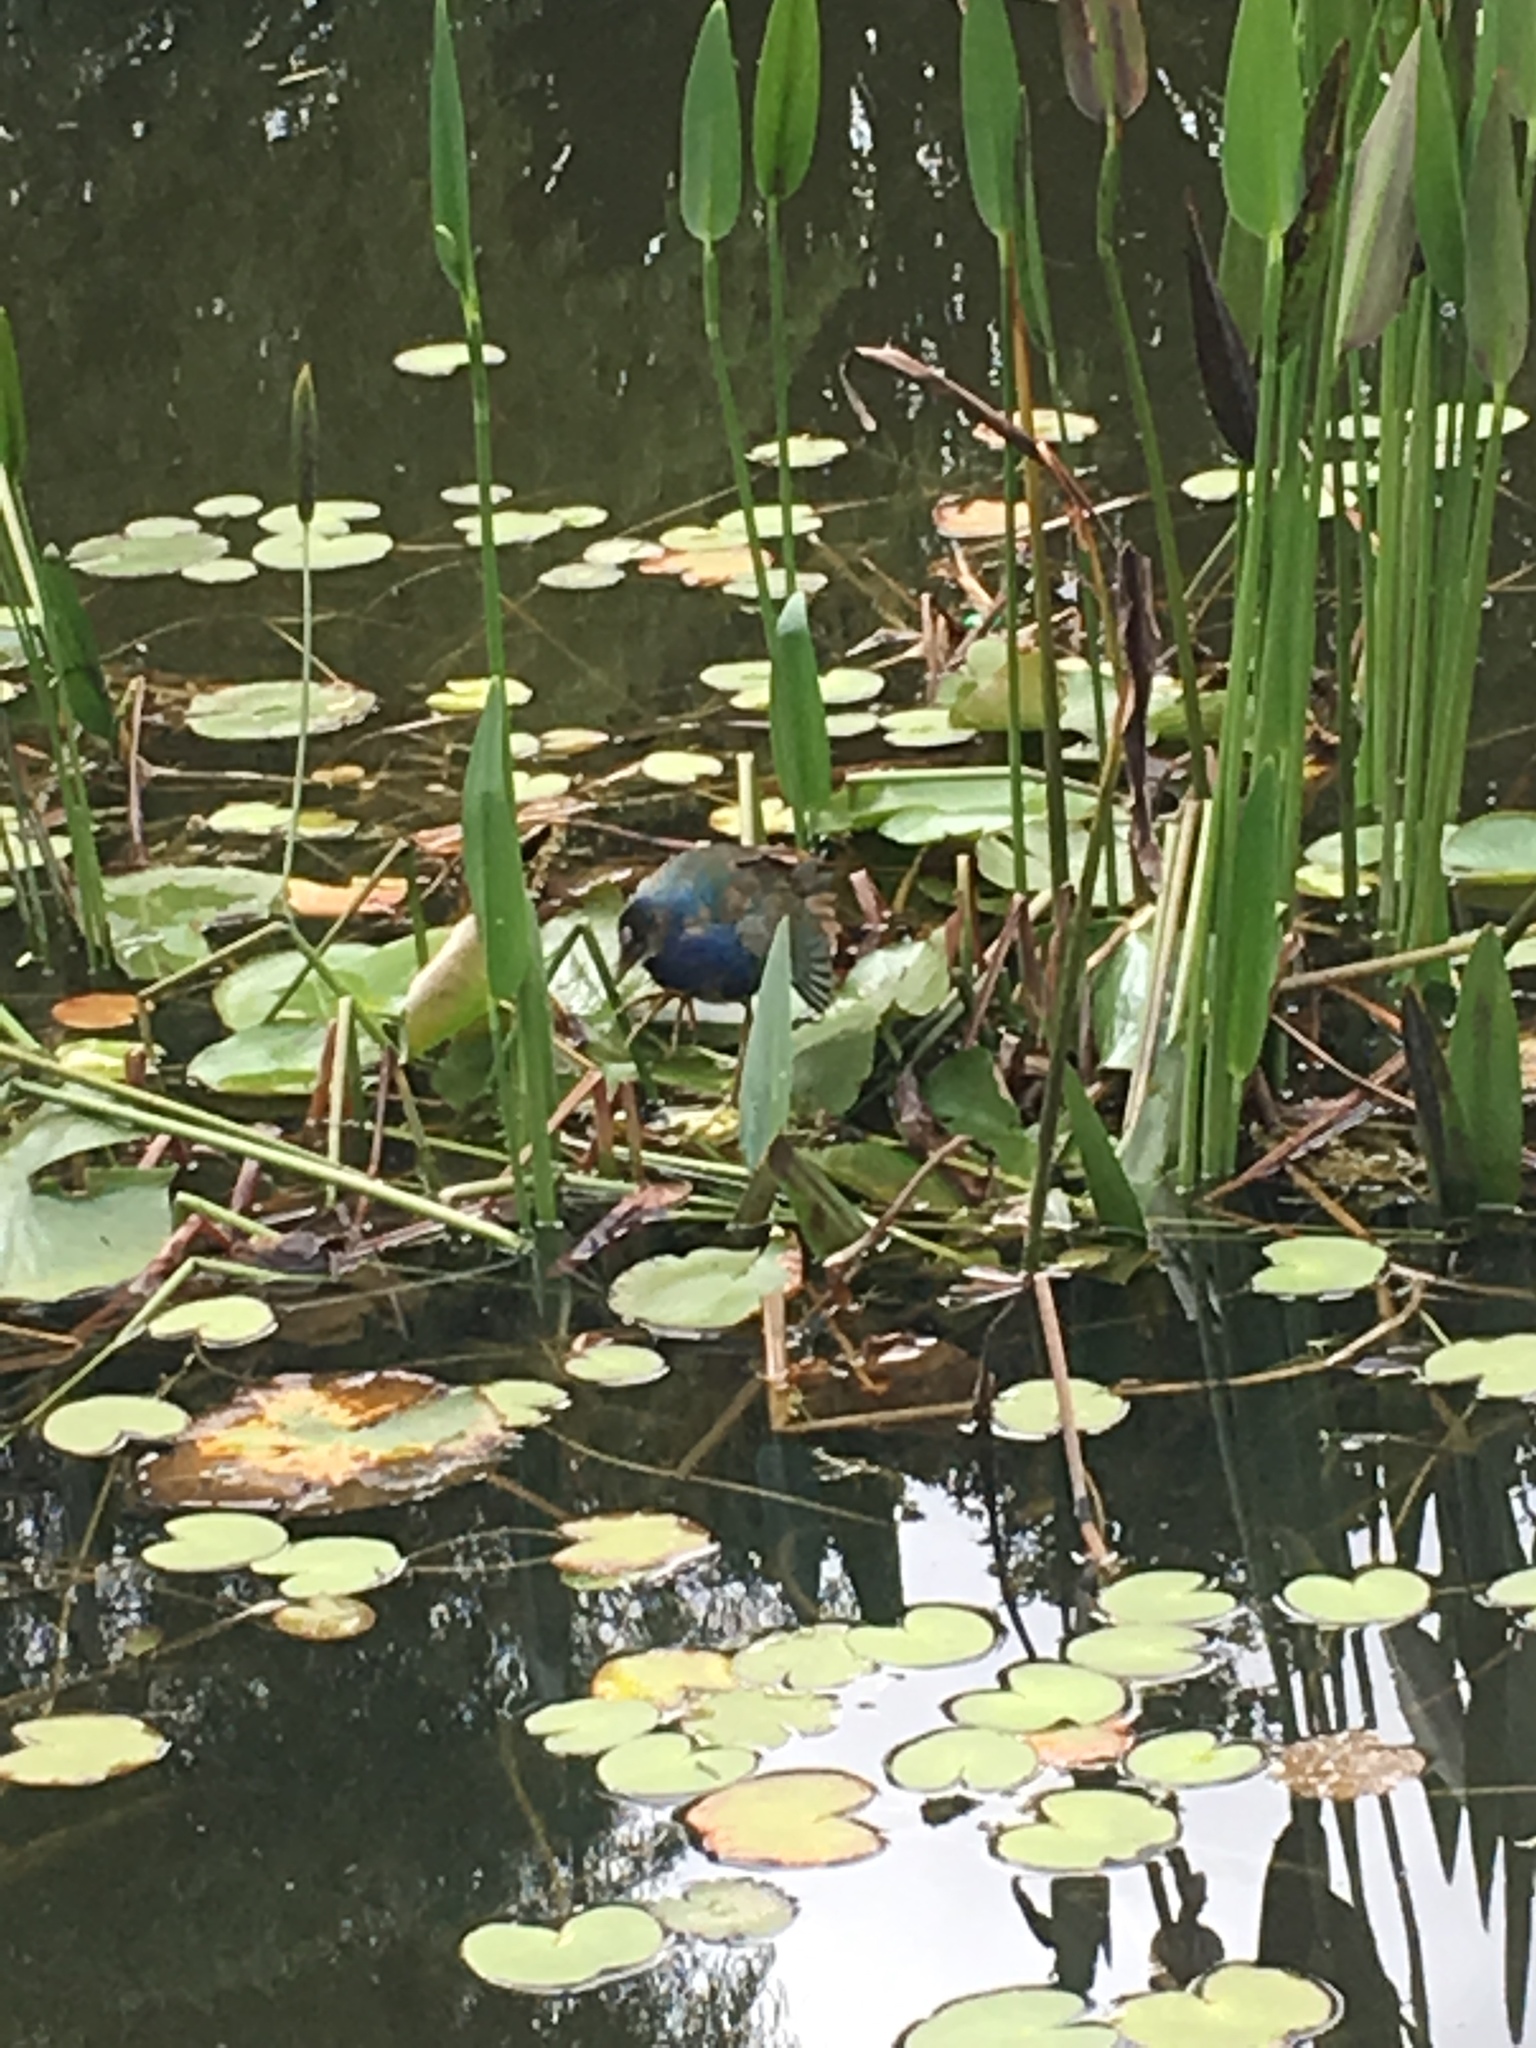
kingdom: Animalia
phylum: Chordata
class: Aves
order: Gruiformes
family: Rallidae
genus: Porphyrio
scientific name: Porphyrio martinica
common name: Purple gallinule
